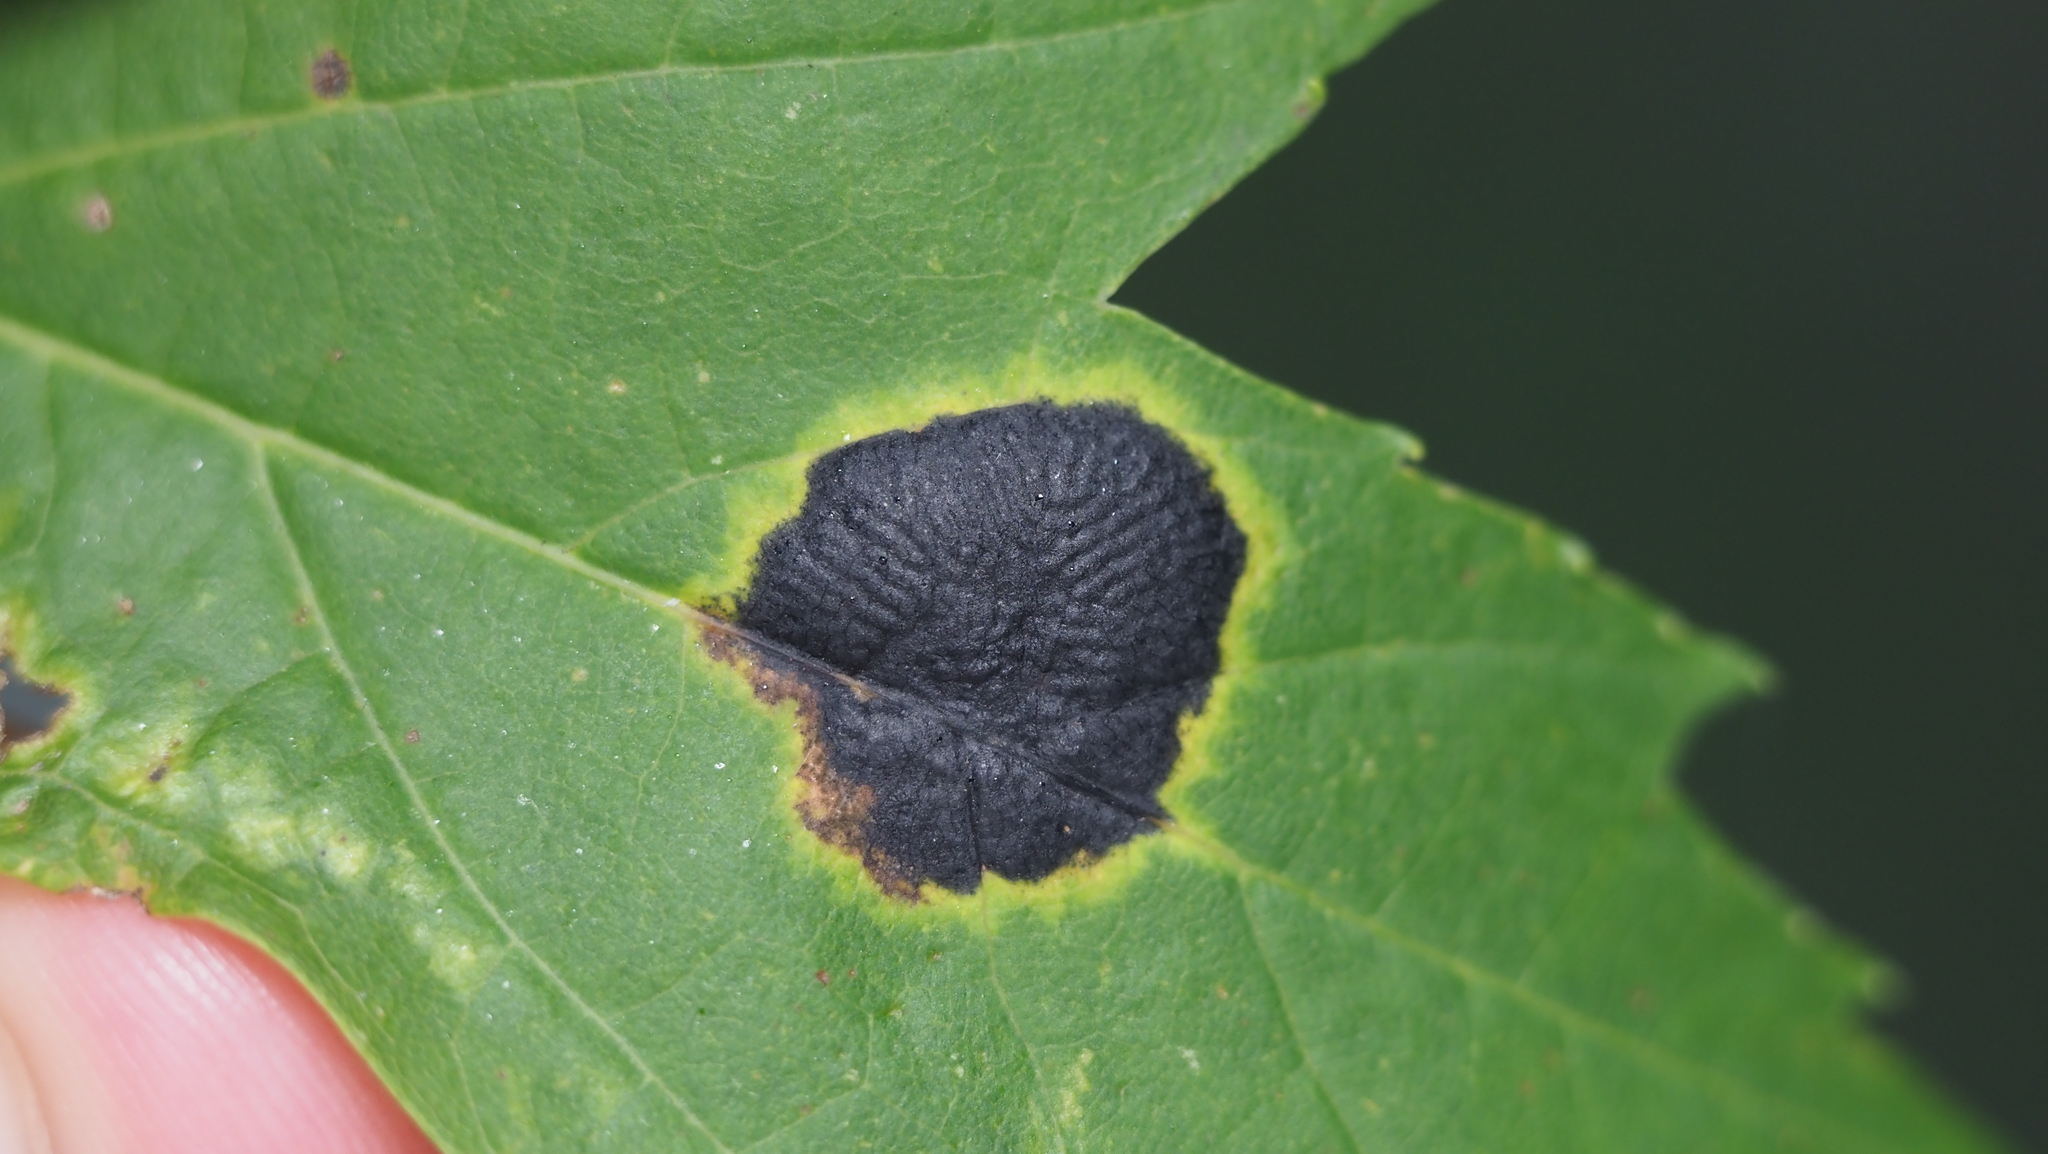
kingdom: Fungi
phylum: Ascomycota
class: Leotiomycetes
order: Rhytismatales
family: Rhytismataceae
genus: Rhytisma
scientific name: Rhytisma americanum
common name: American tar spot
